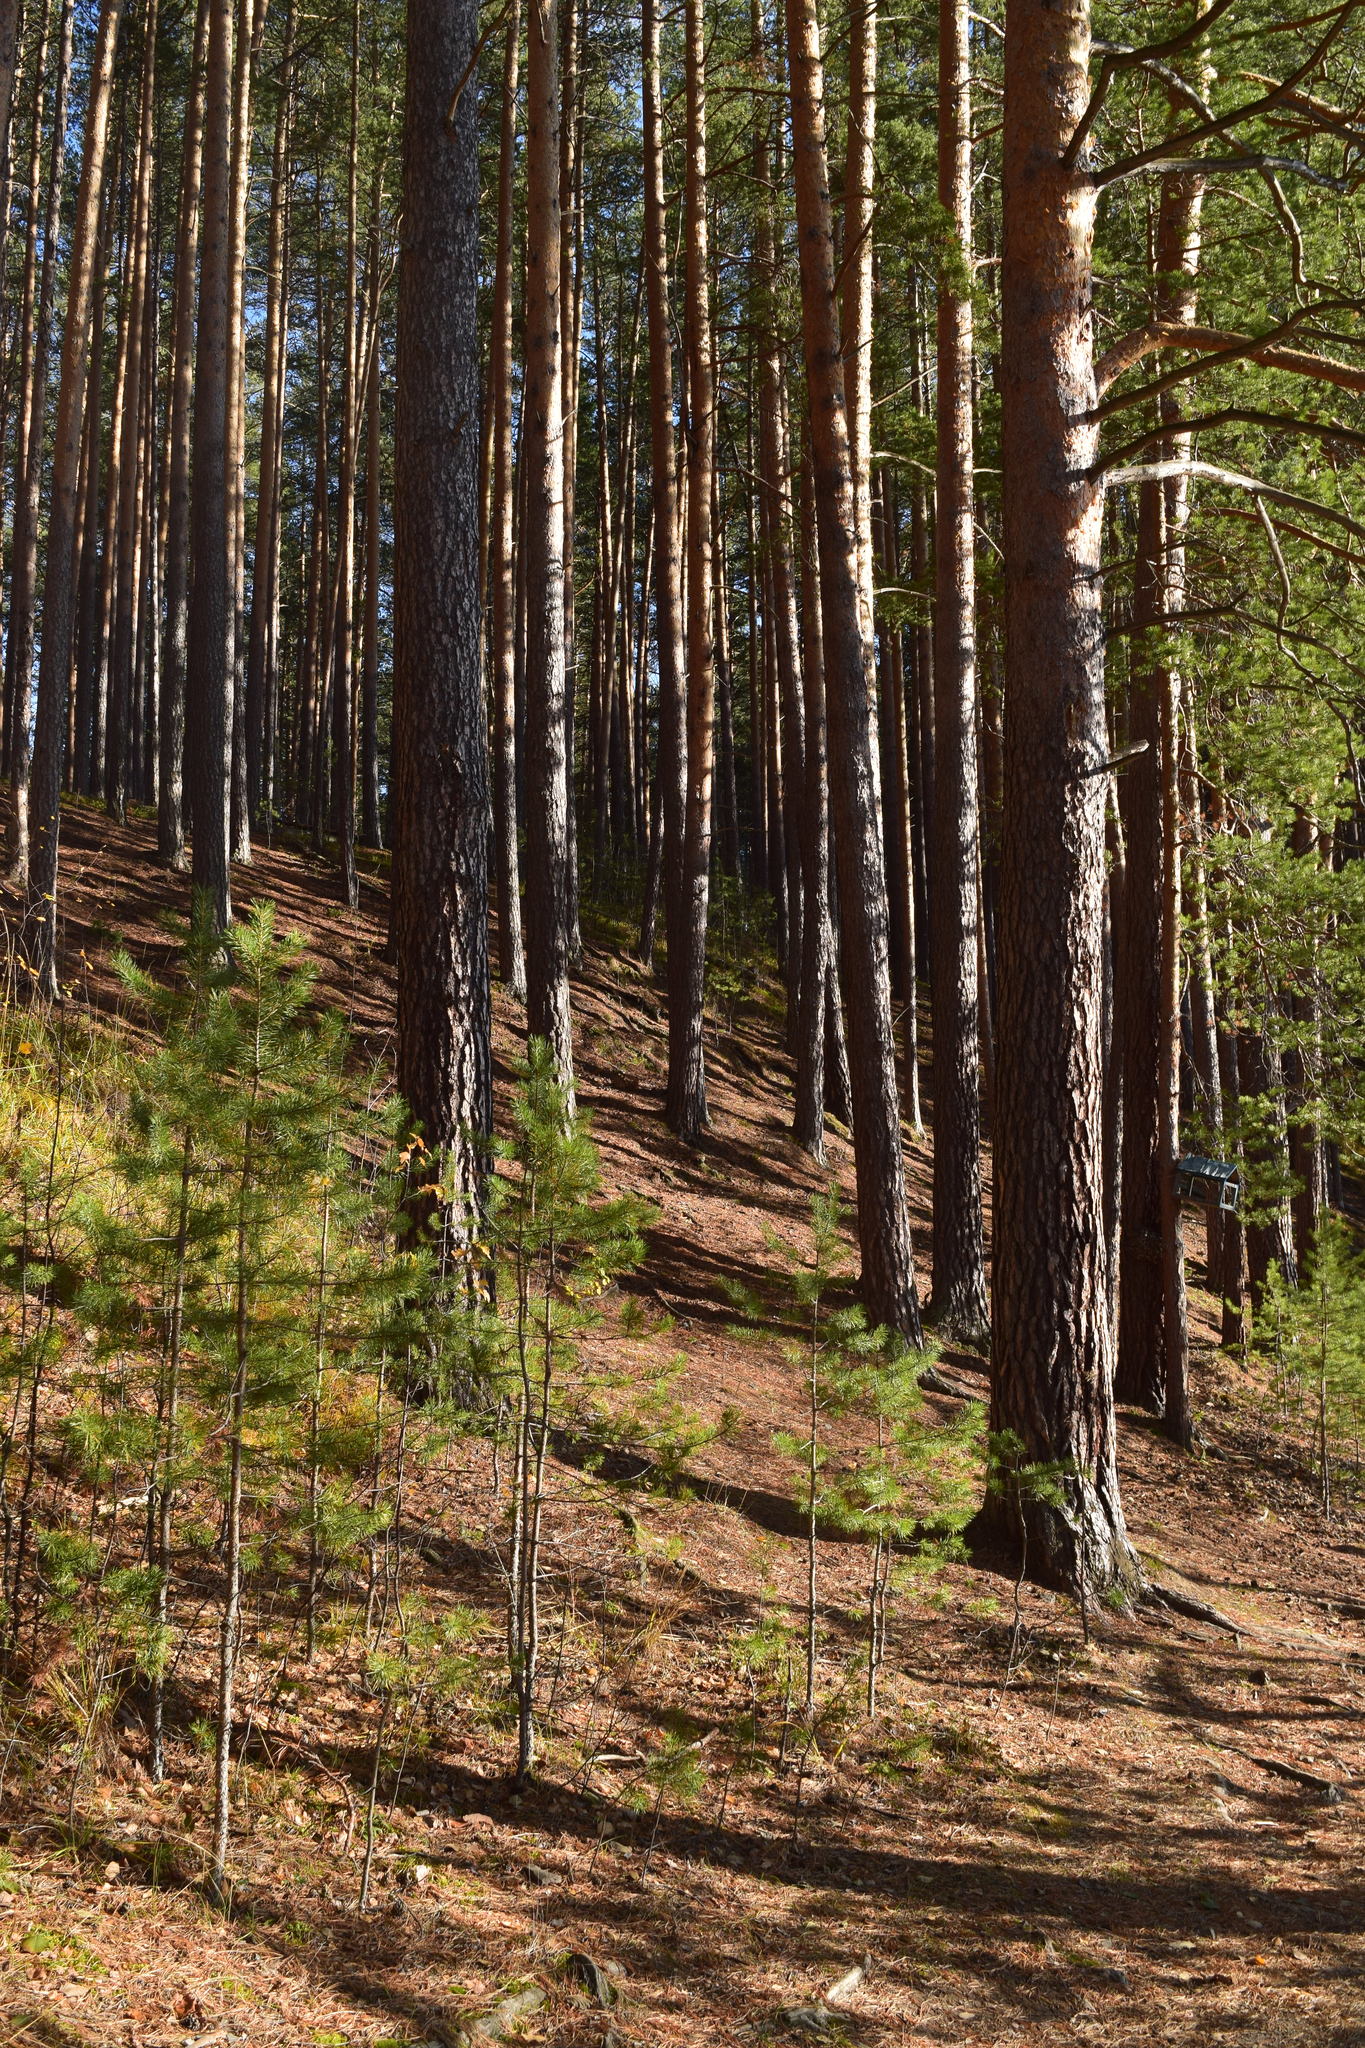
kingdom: Plantae
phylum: Tracheophyta
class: Pinopsida
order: Pinales
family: Pinaceae
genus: Pinus
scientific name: Pinus sylvestris
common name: Scots pine
